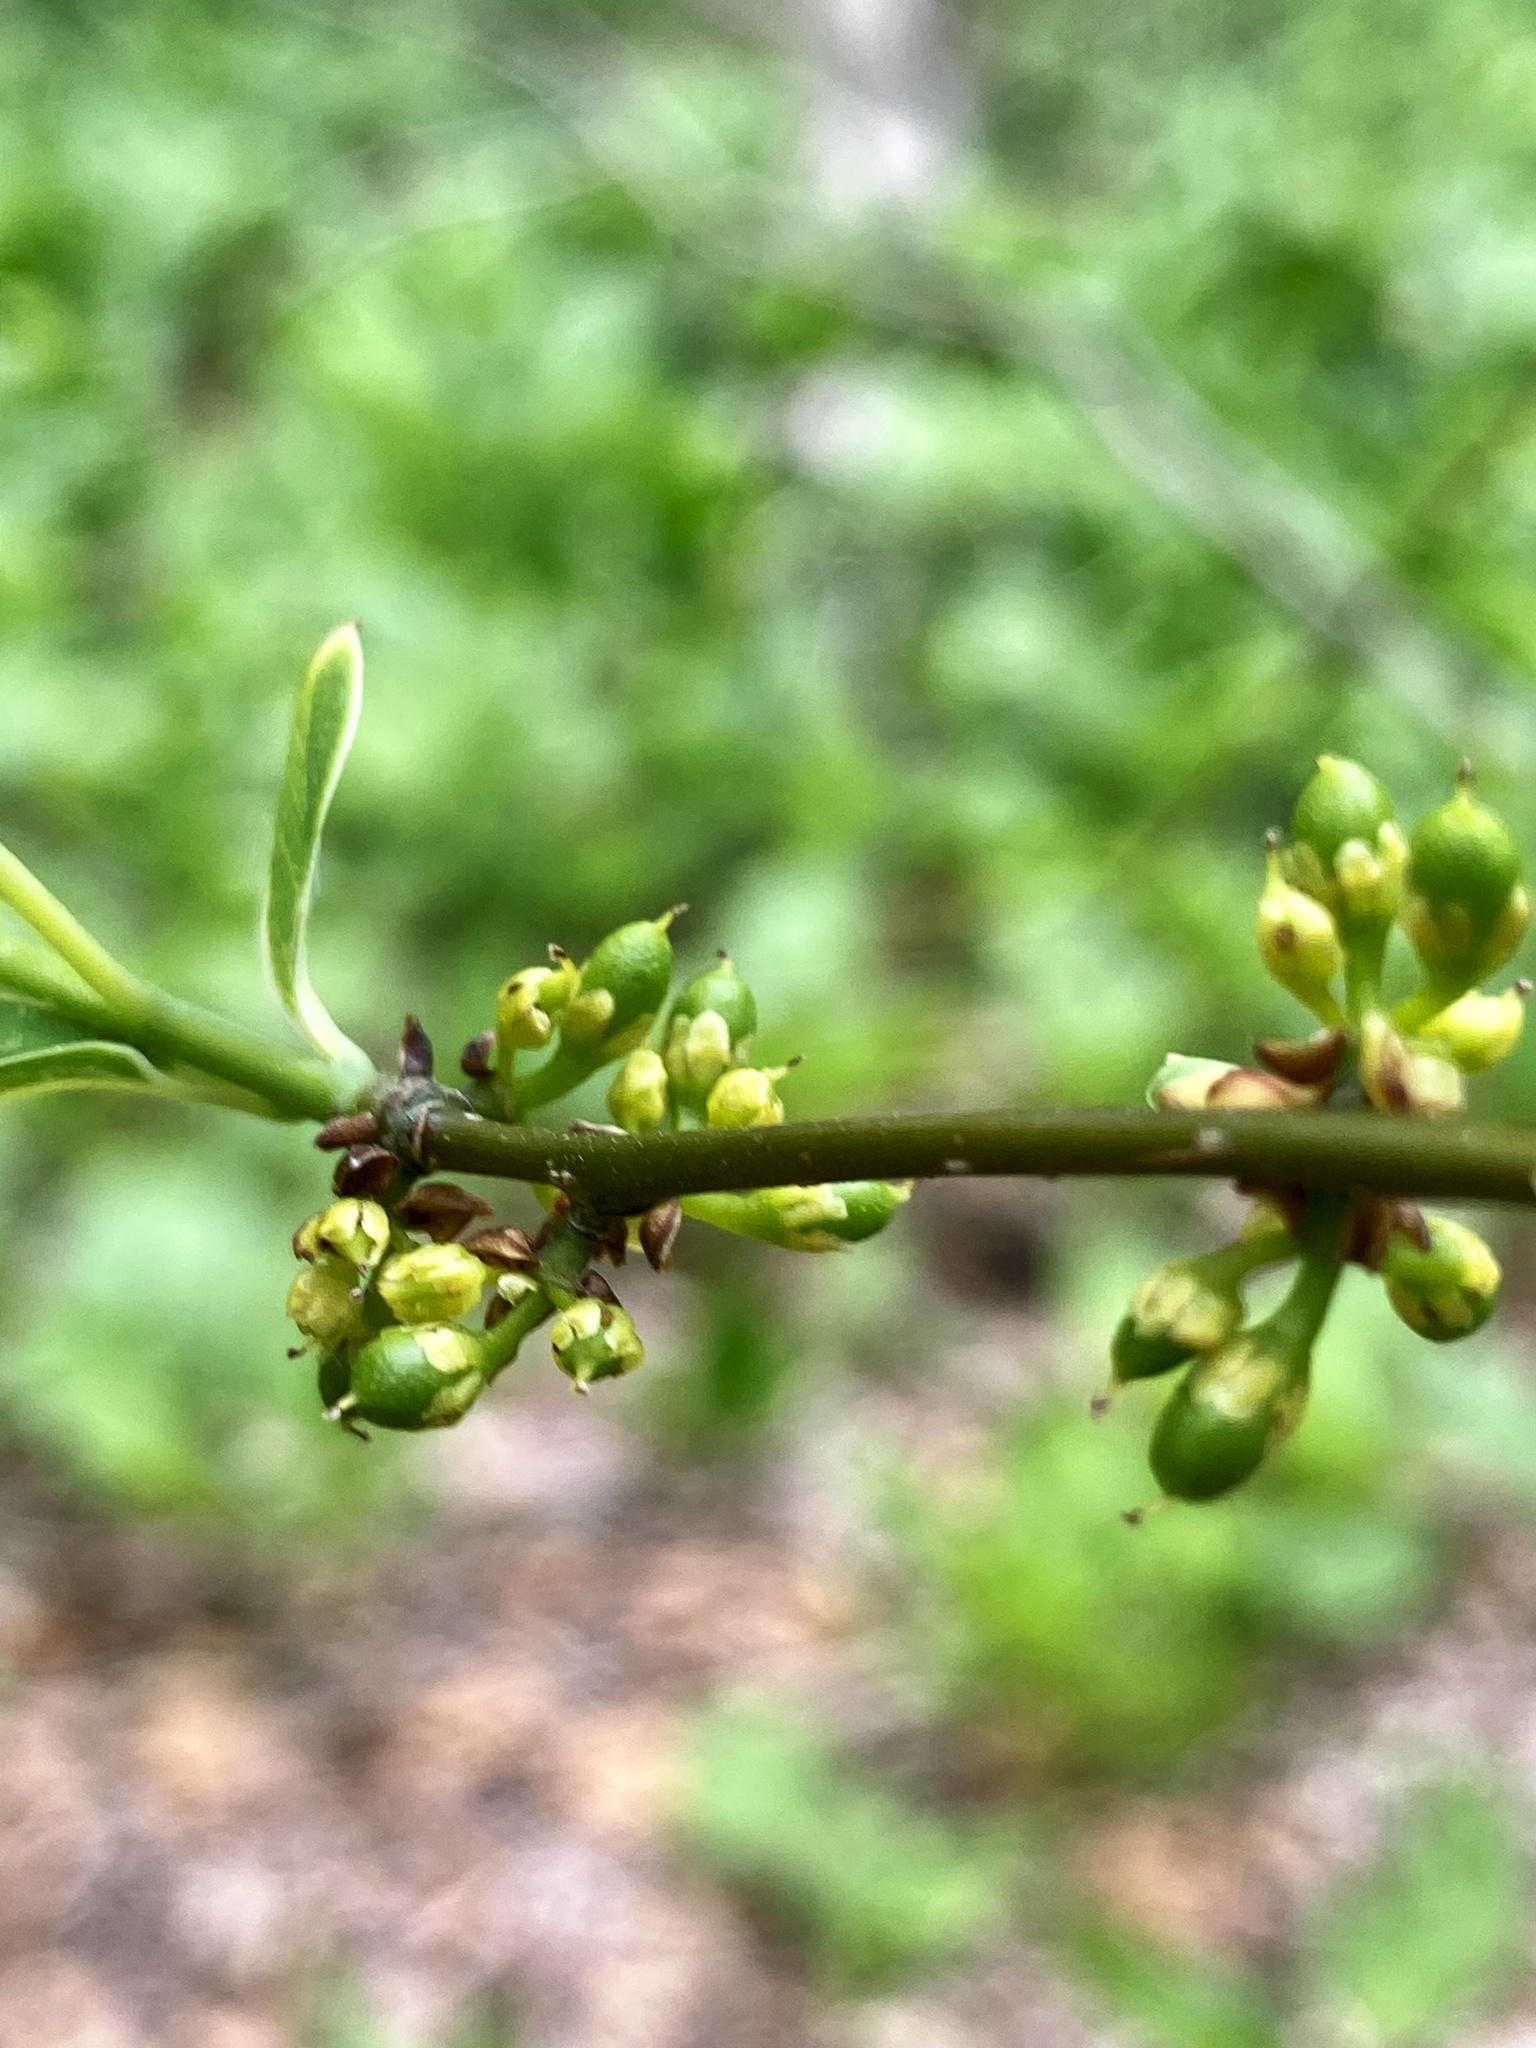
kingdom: Plantae
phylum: Tracheophyta
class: Magnoliopsida
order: Laurales
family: Lauraceae
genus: Lindera
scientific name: Lindera benzoin
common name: Spicebush
